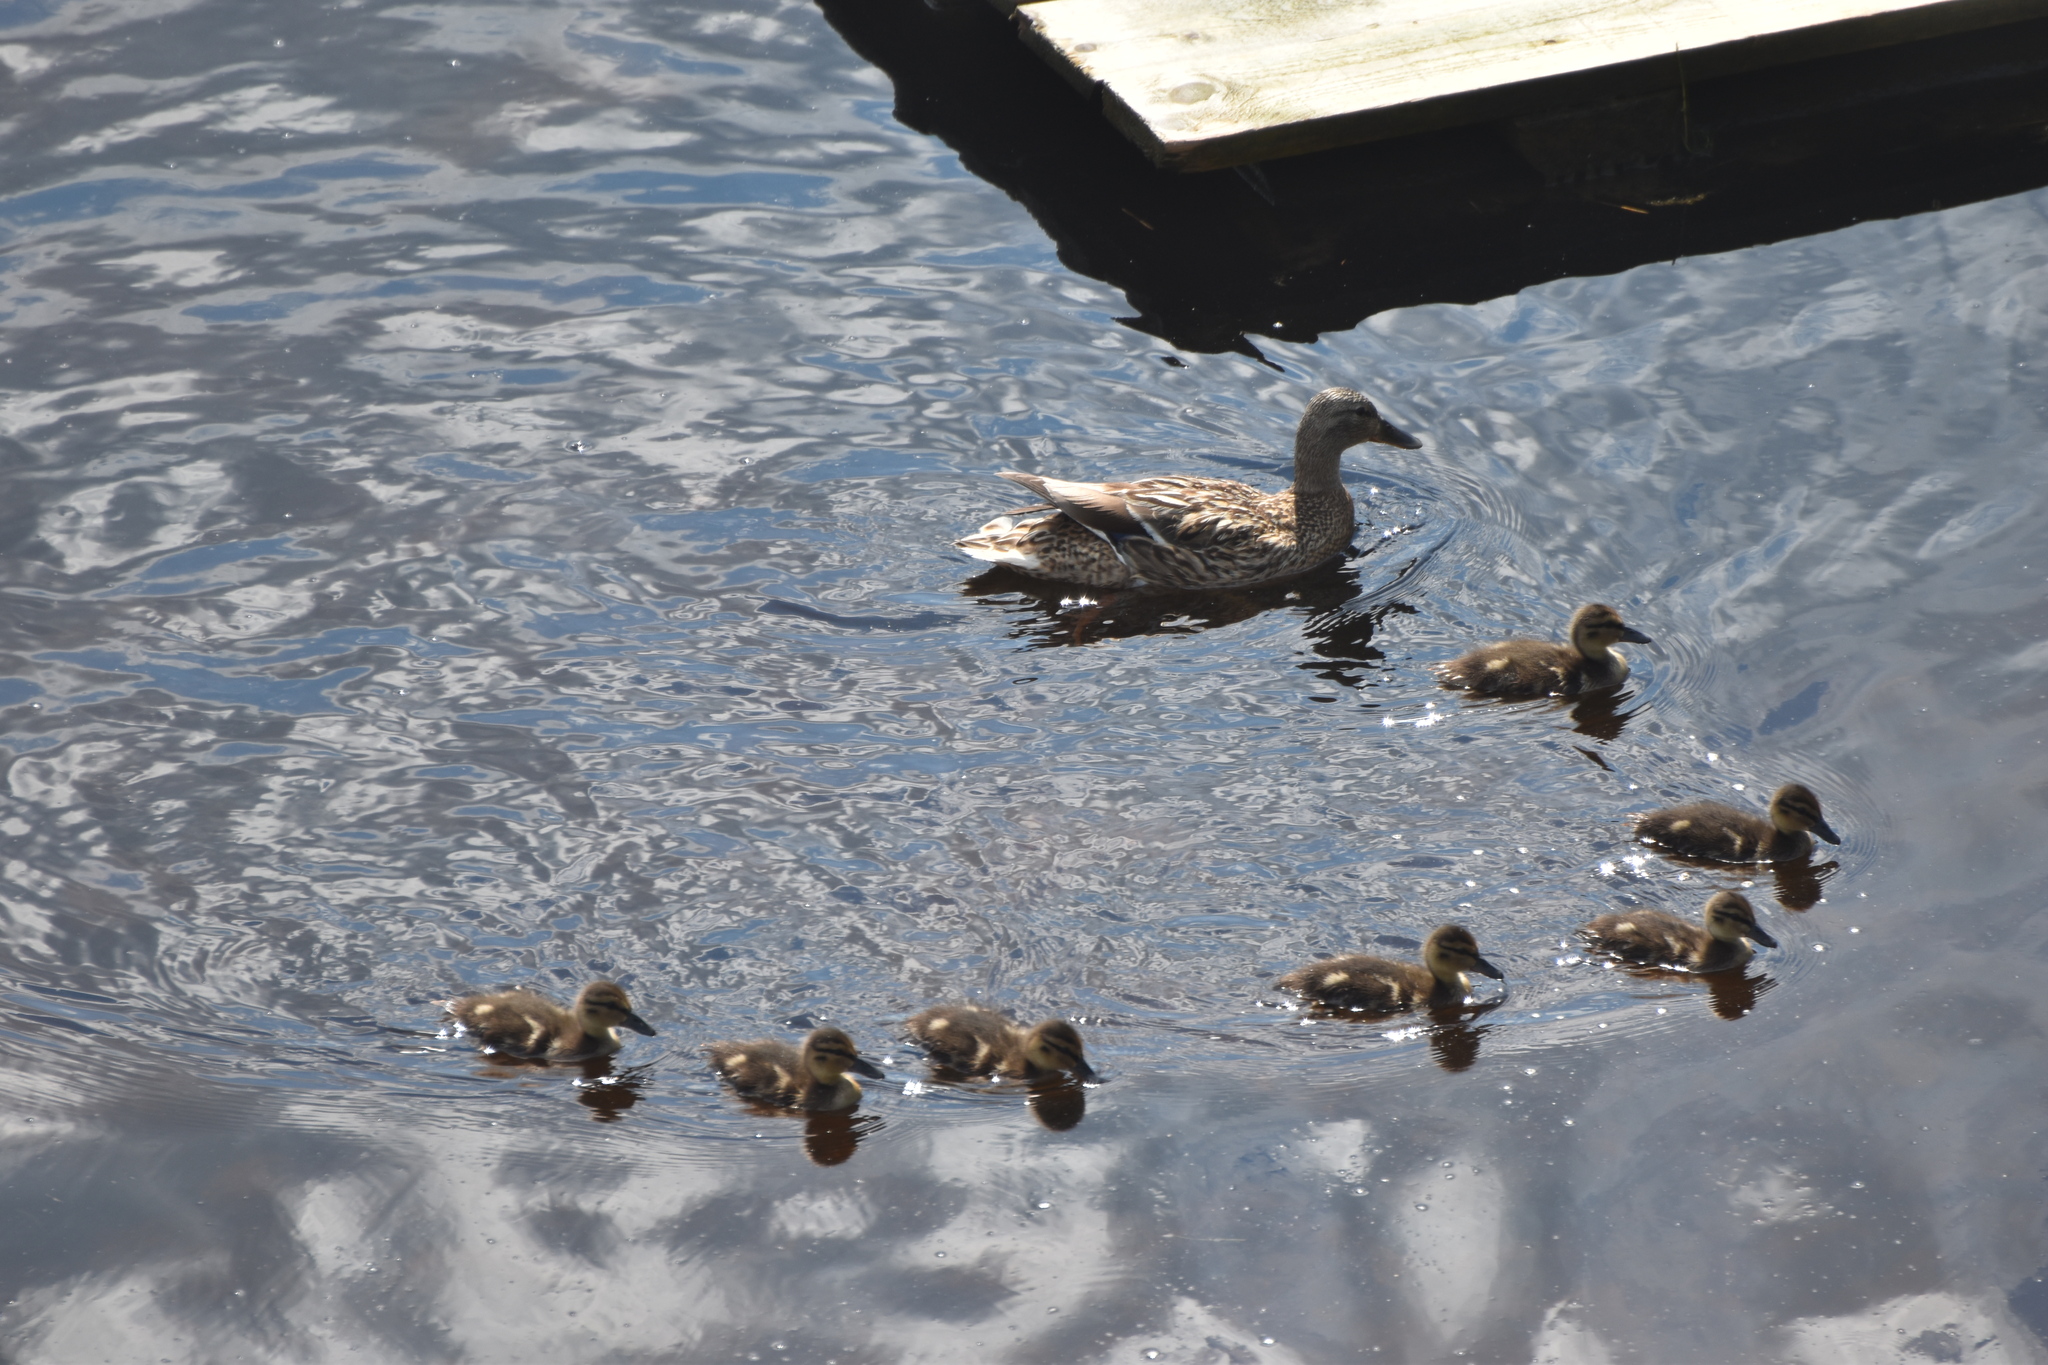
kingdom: Animalia
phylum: Chordata
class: Aves
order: Anseriformes
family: Anatidae
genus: Anas
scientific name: Anas platyrhynchos
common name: Mallard
